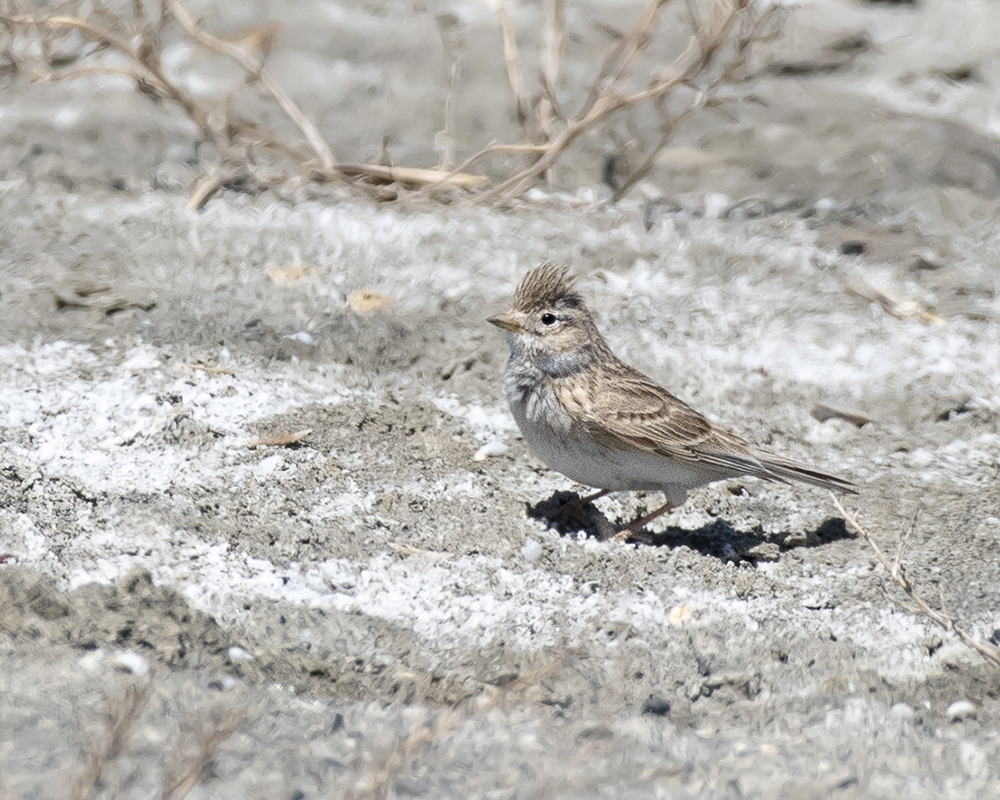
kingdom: Animalia
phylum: Chordata
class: Aves
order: Passeriformes
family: Alaudidae
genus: Calandrella
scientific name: Calandrella rufescens
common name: Lesser short-toed lark
